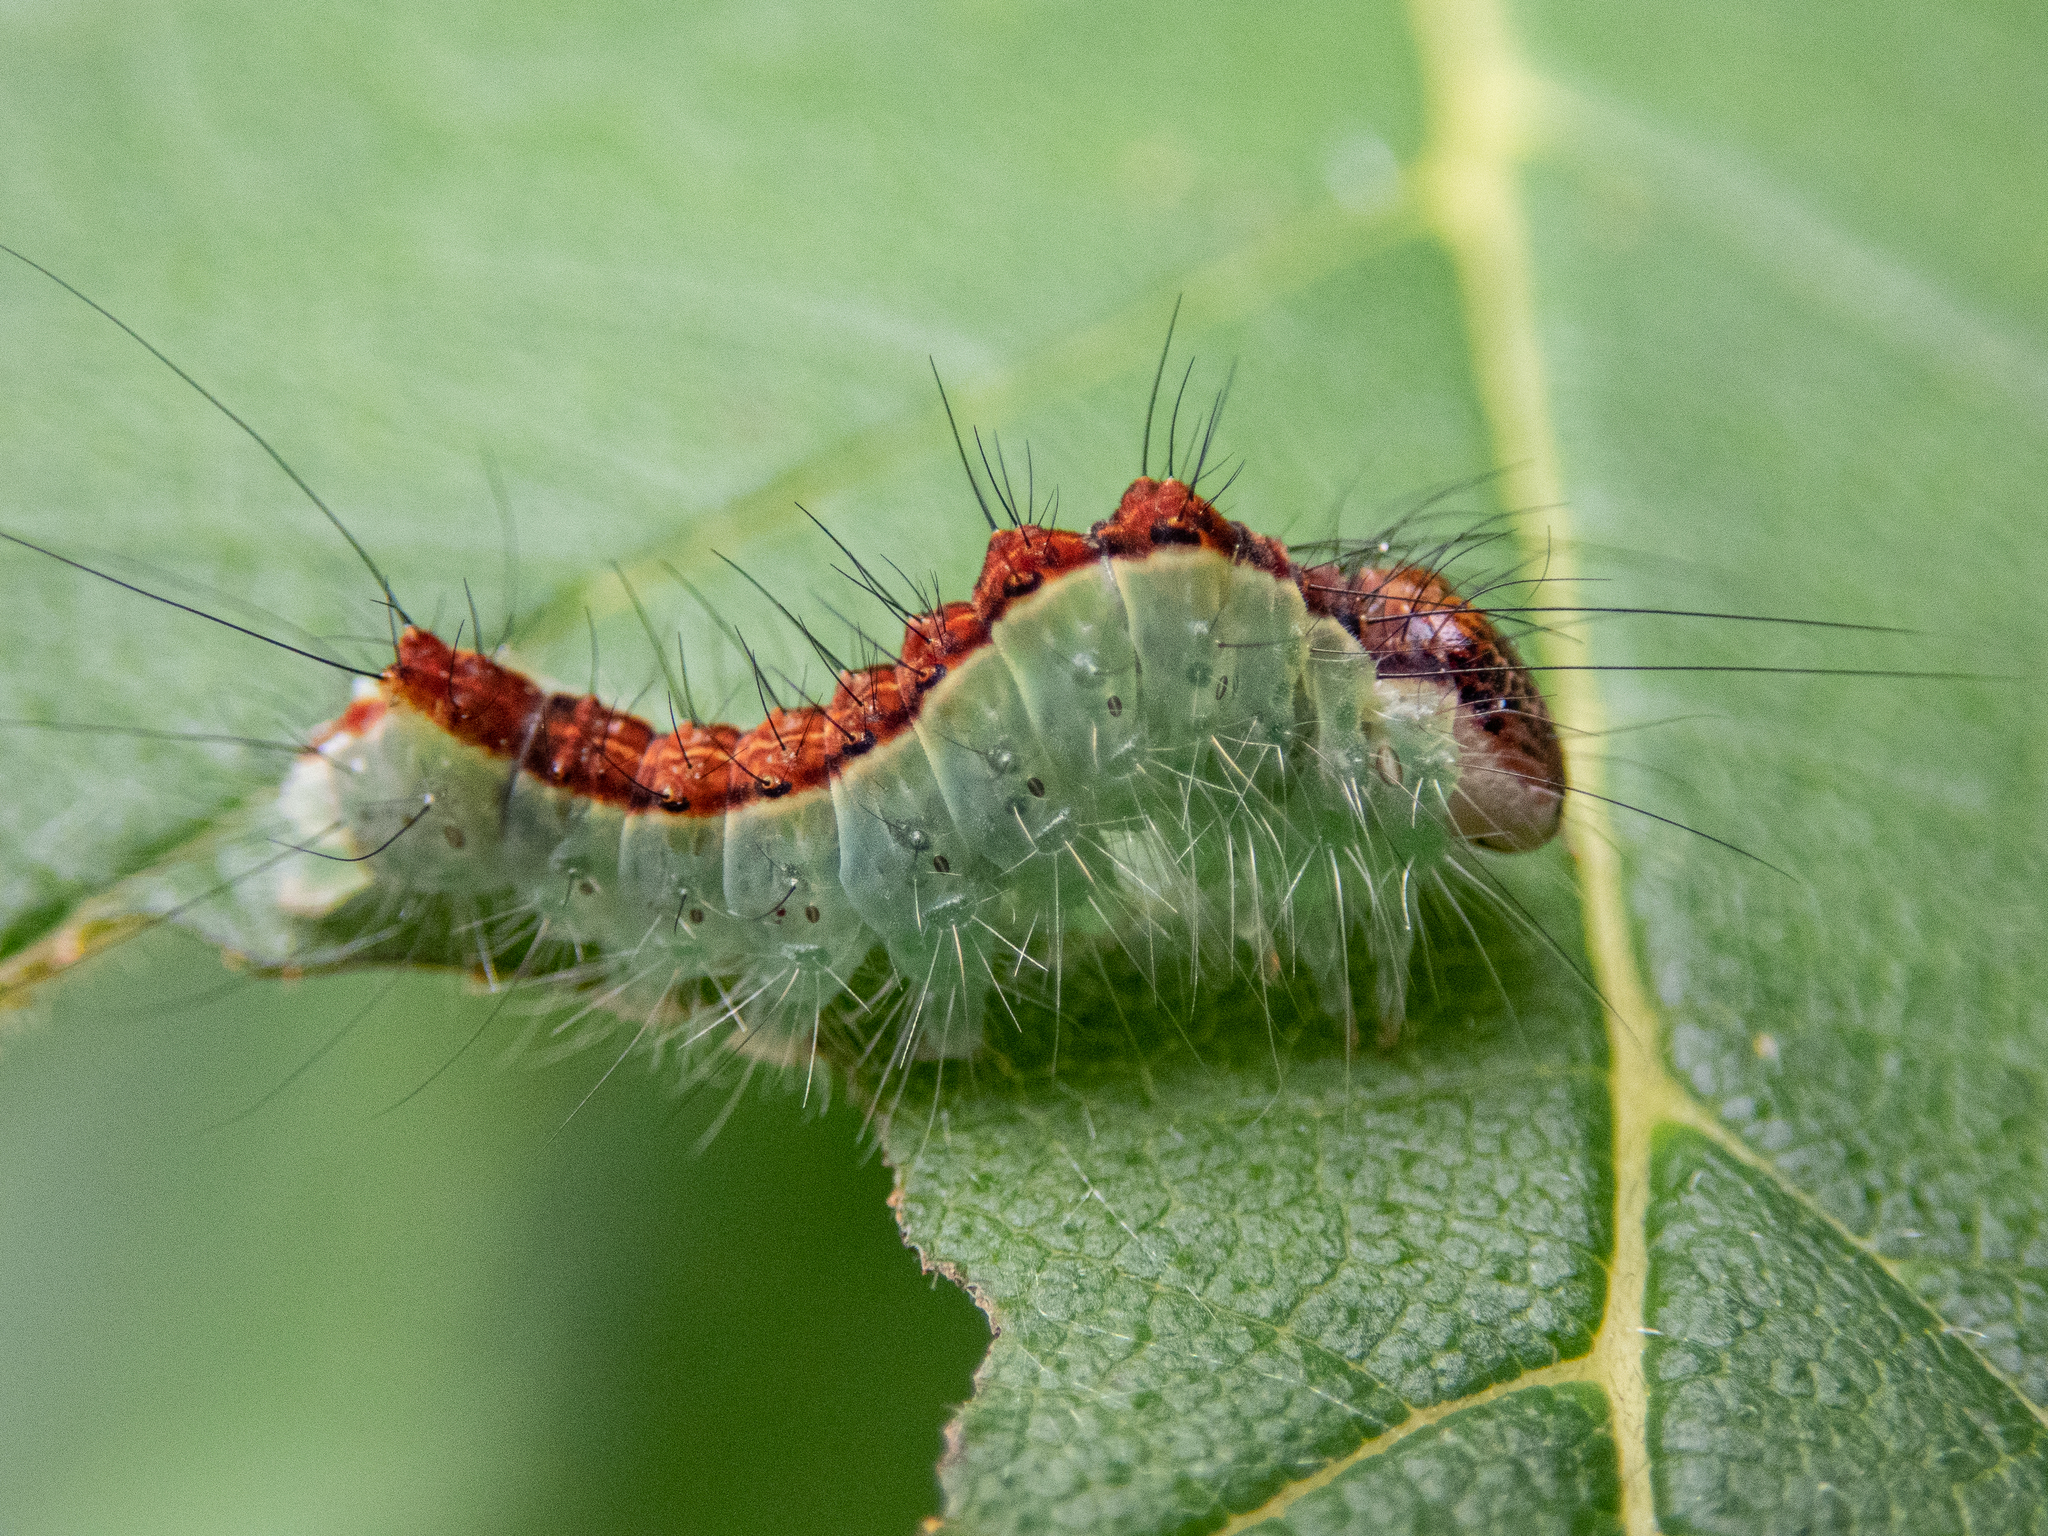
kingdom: Animalia
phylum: Arthropoda
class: Insecta
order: Lepidoptera
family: Noctuidae
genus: Acronicta
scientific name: Acronicta superans
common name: Splendid dagger
